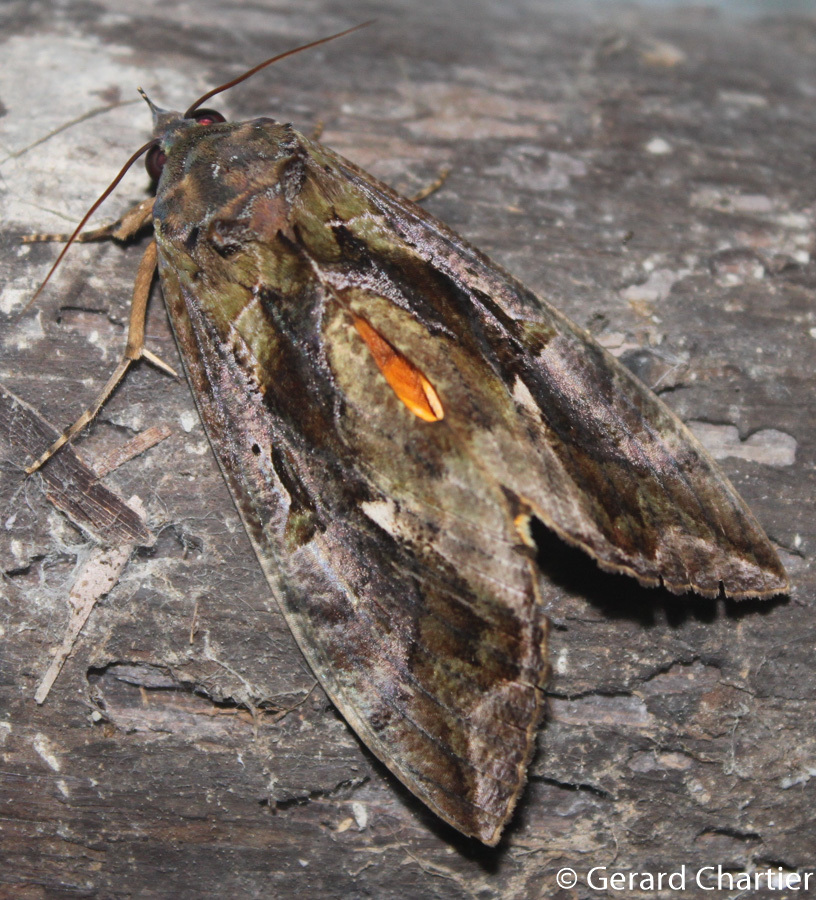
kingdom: Animalia
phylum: Arthropoda
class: Insecta
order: Lepidoptera
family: Erebidae
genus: Eudocima
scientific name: Eudocima phalonia
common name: Wasp
